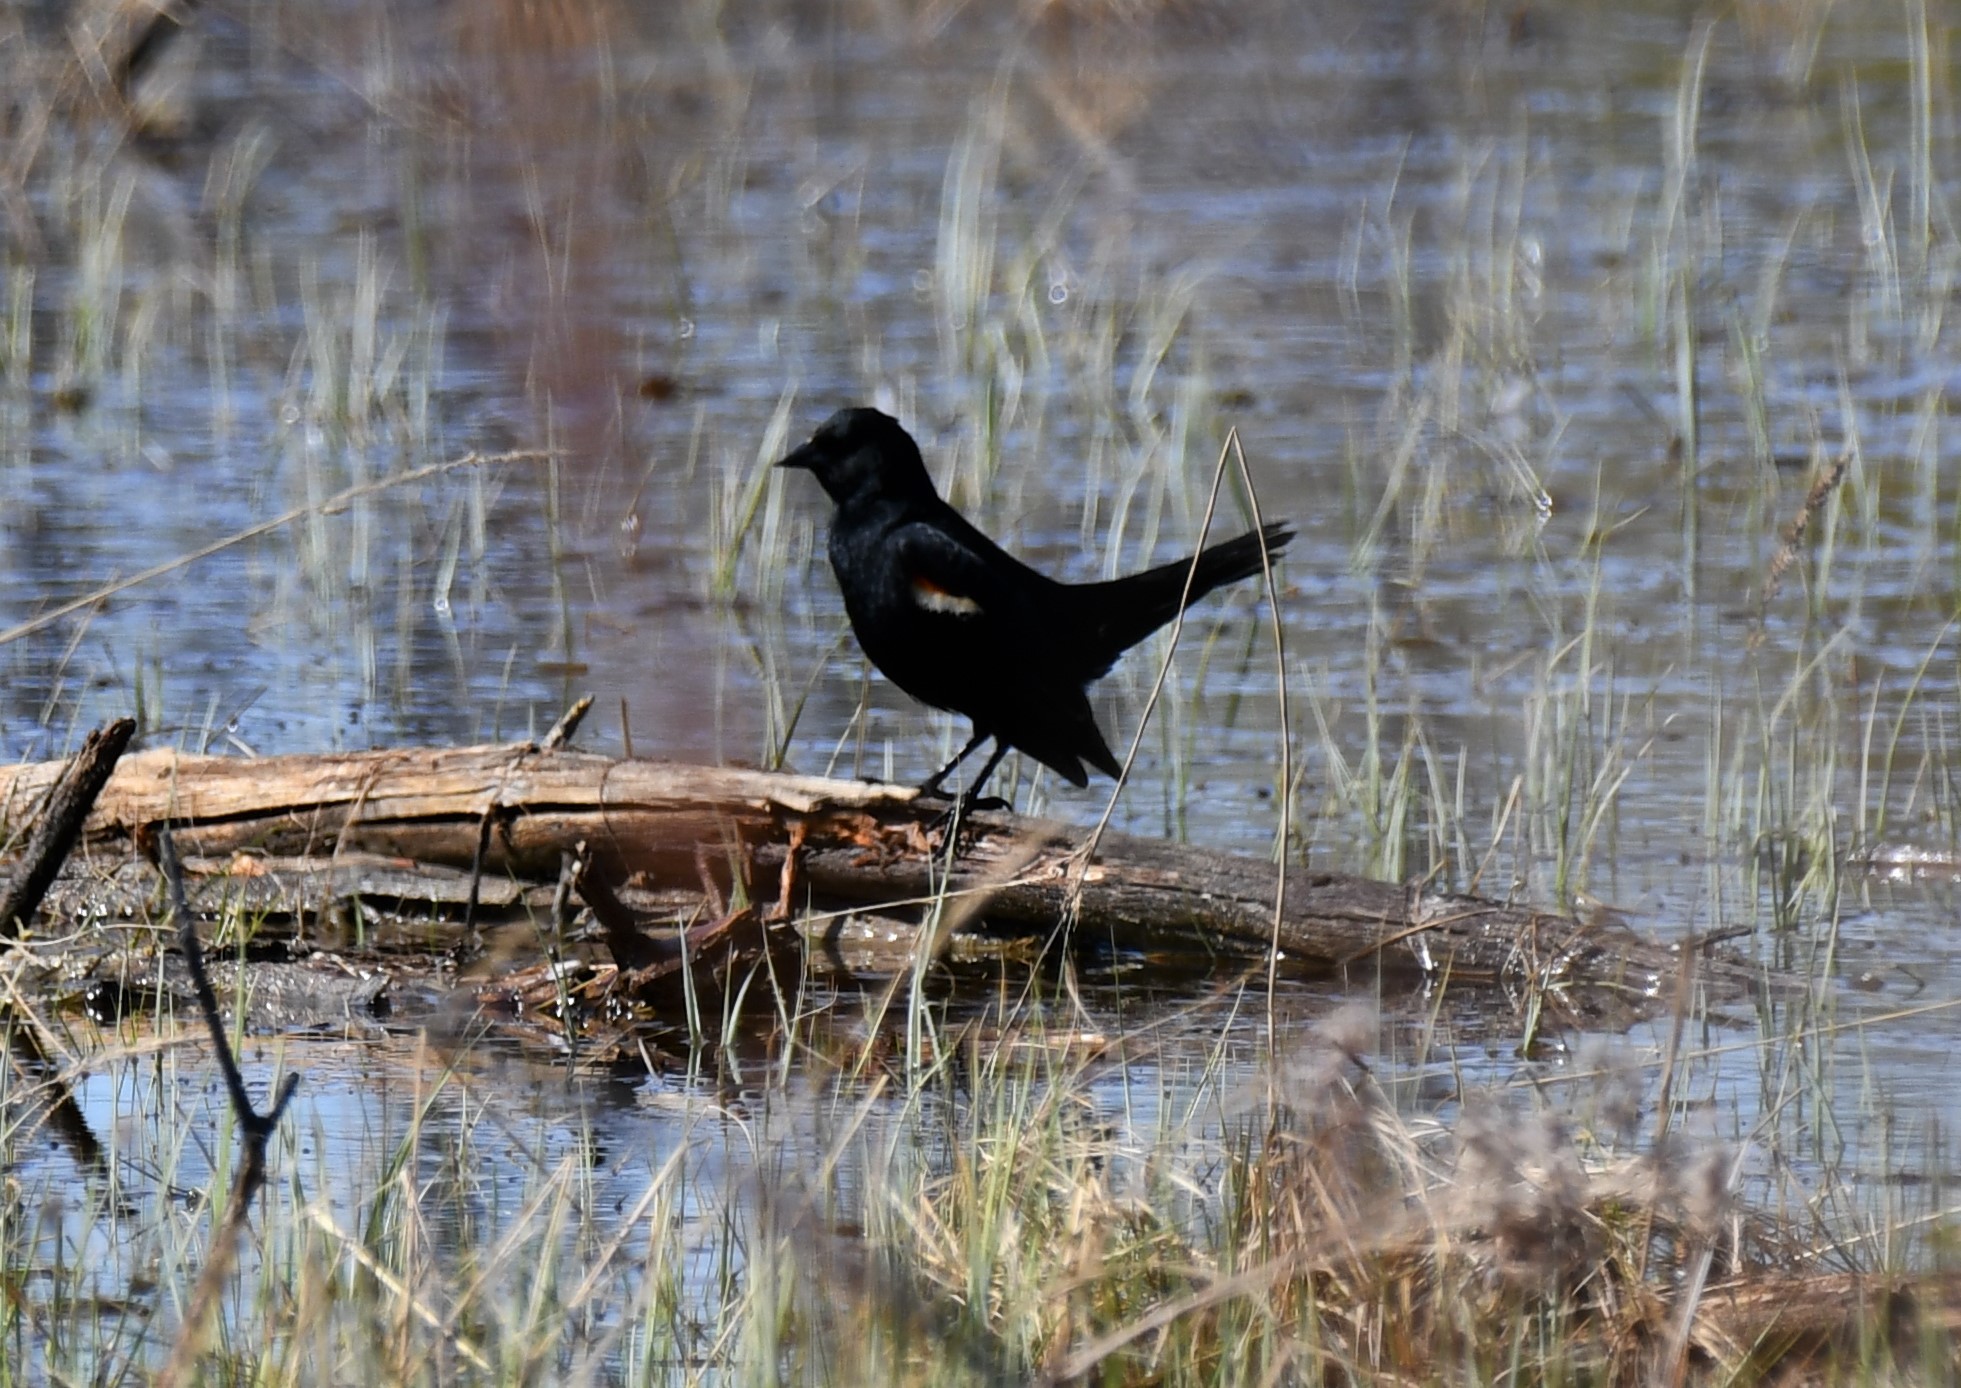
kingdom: Animalia
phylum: Chordata
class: Aves
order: Passeriformes
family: Icteridae
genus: Agelaius
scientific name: Agelaius phoeniceus
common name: Red-winged blackbird
